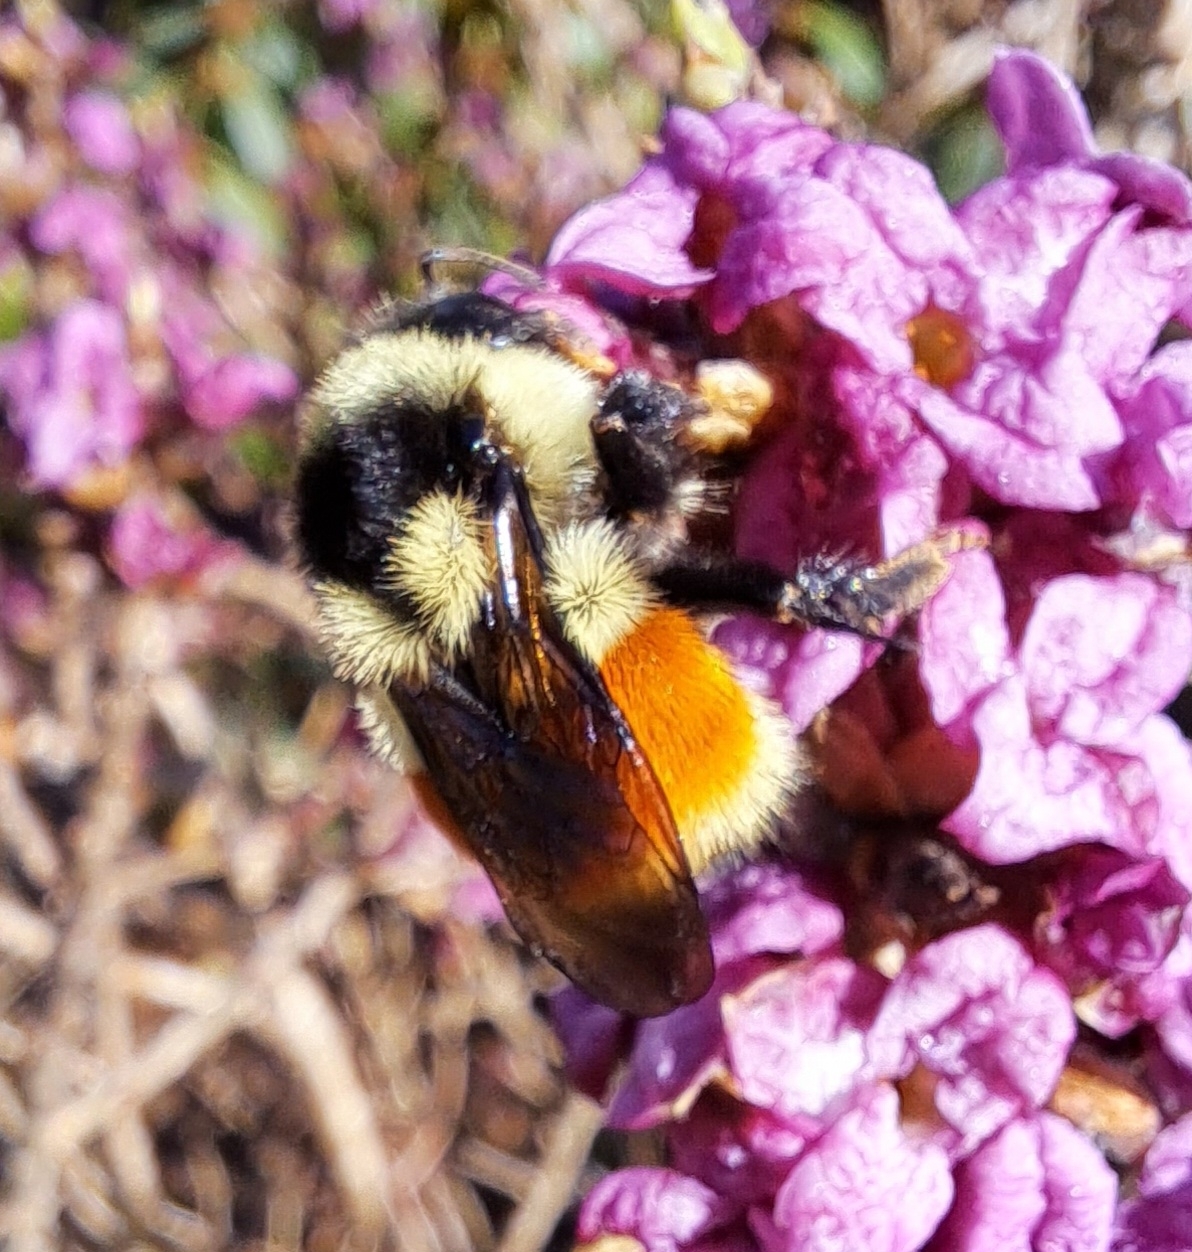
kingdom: Animalia
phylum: Arthropoda
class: Insecta
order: Hymenoptera
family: Apidae
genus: Bombus
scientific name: Bombus ternarius
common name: Tri-colored bumble bee
